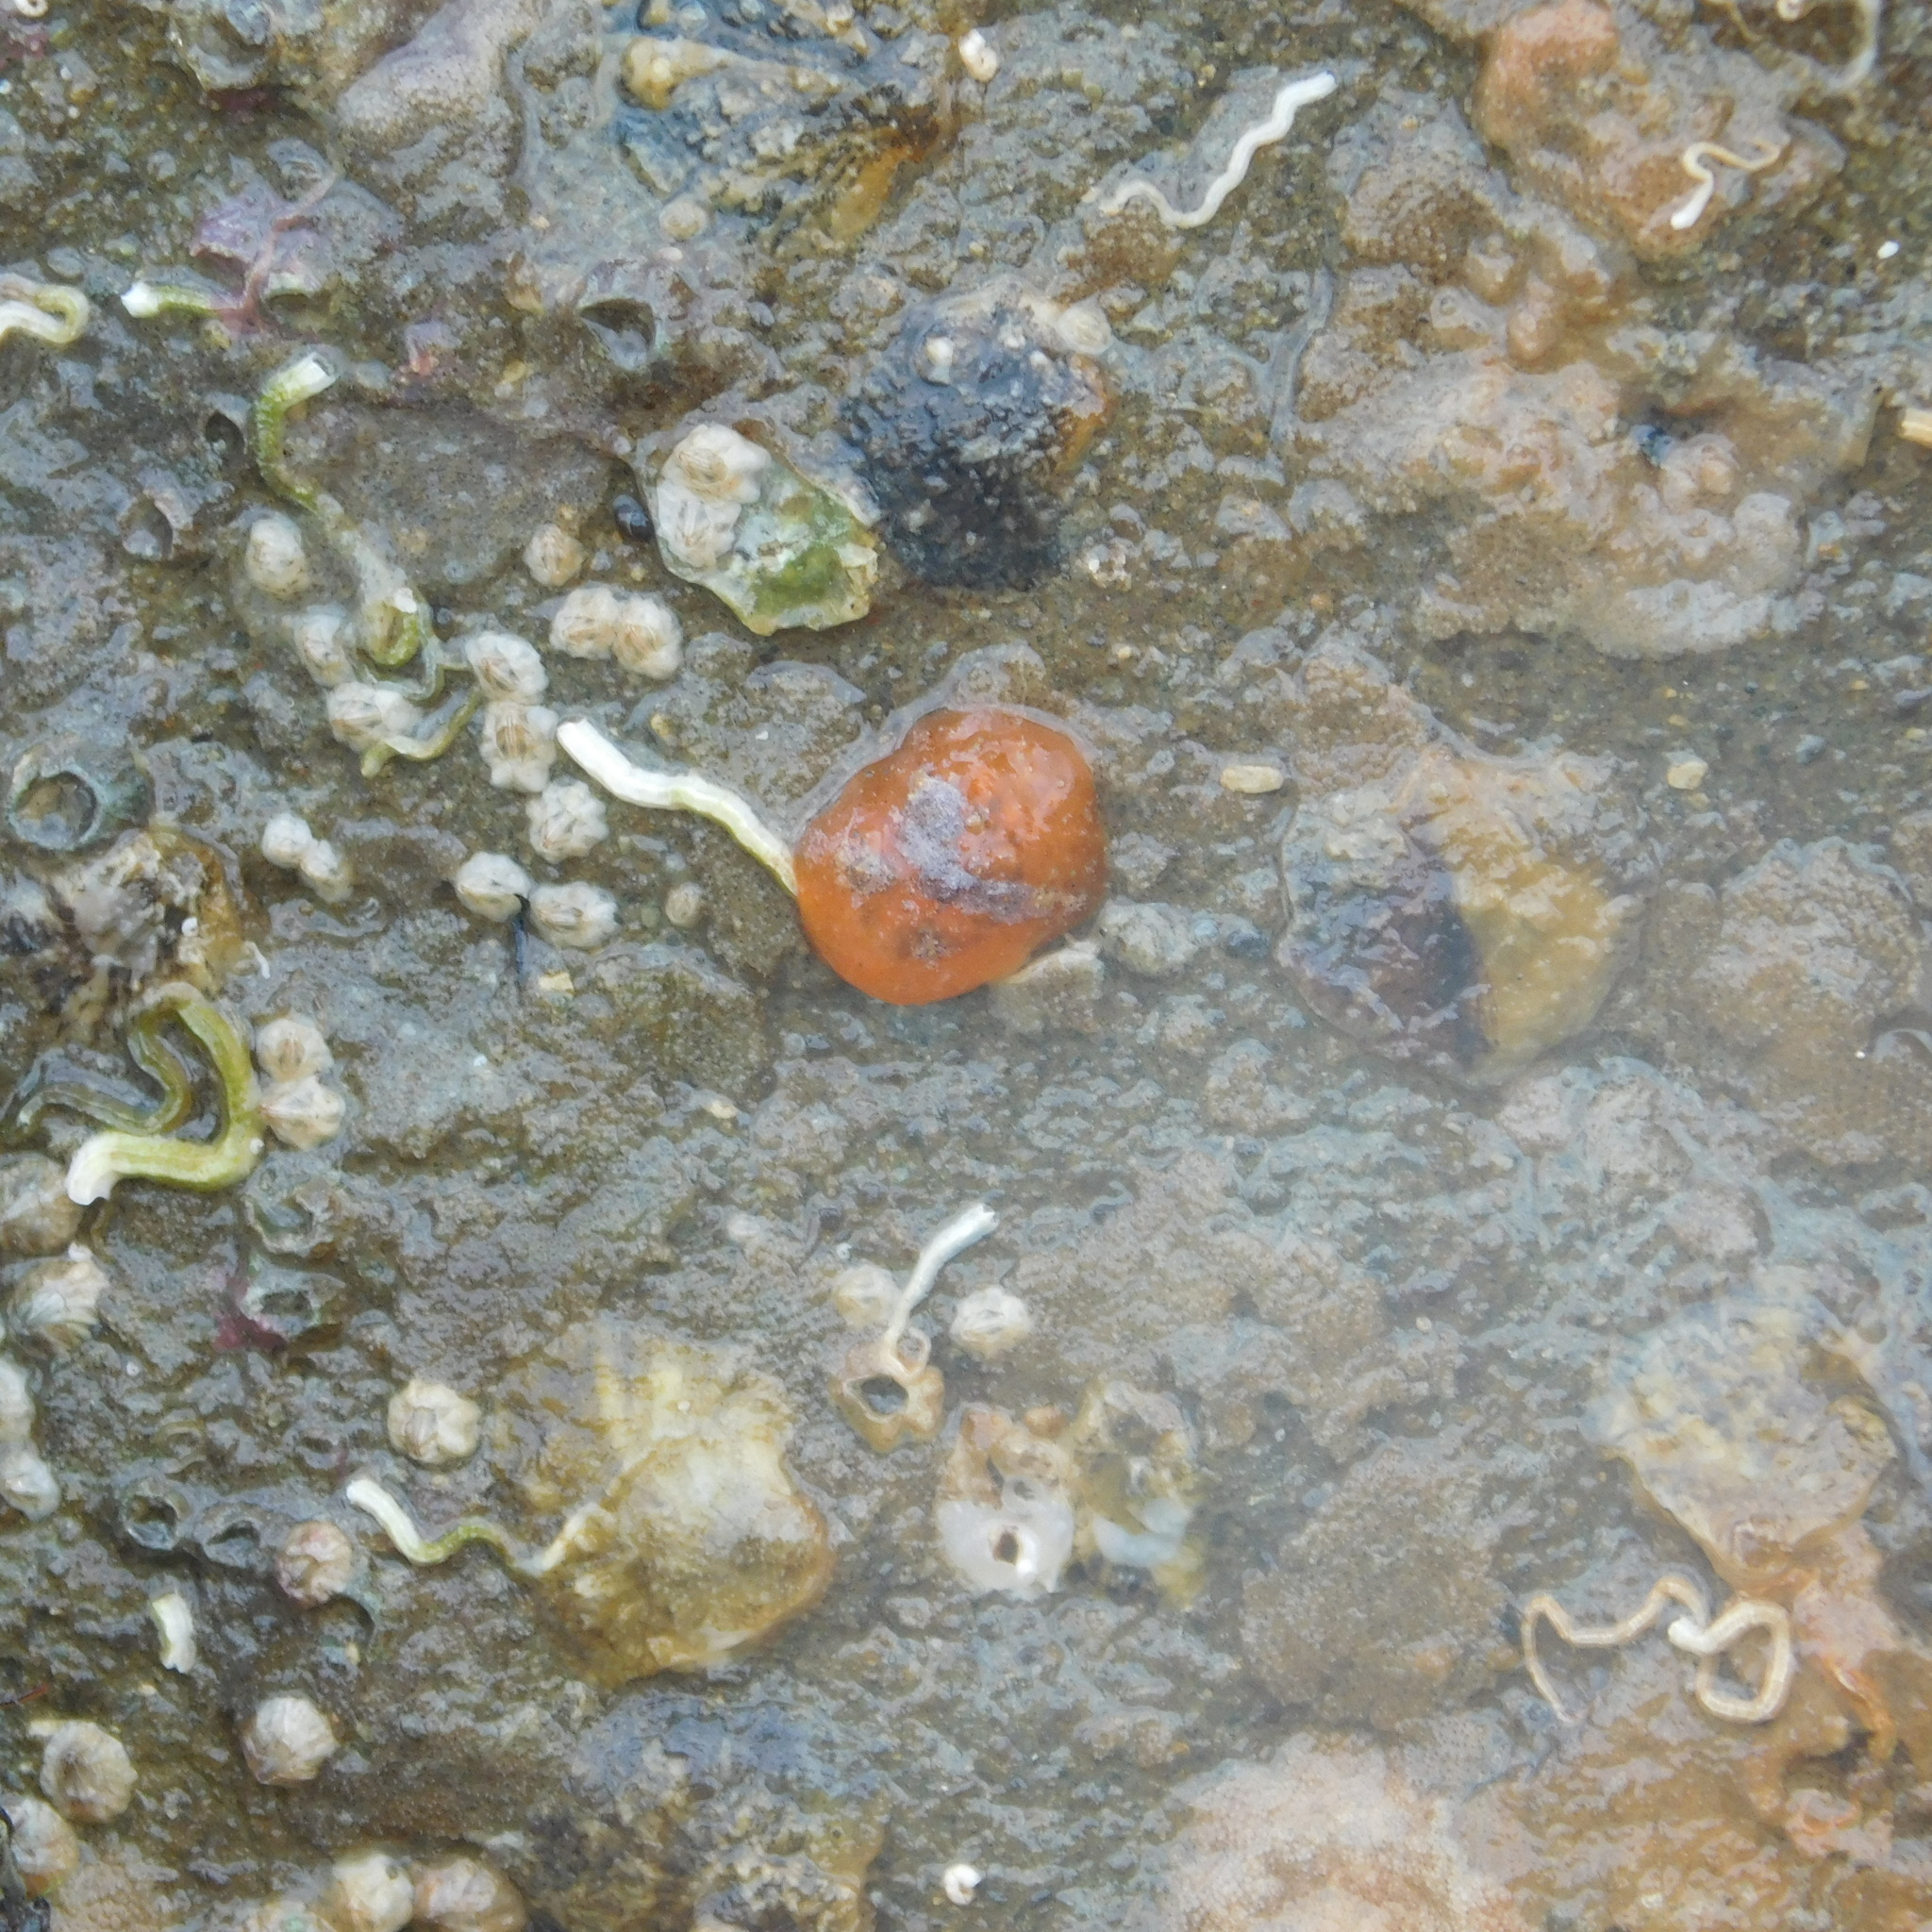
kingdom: Animalia
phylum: Mollusca
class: Gastropoda
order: Littorinimorpha
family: Velutinidae
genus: Lamellaria
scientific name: Lamellaria ophione
